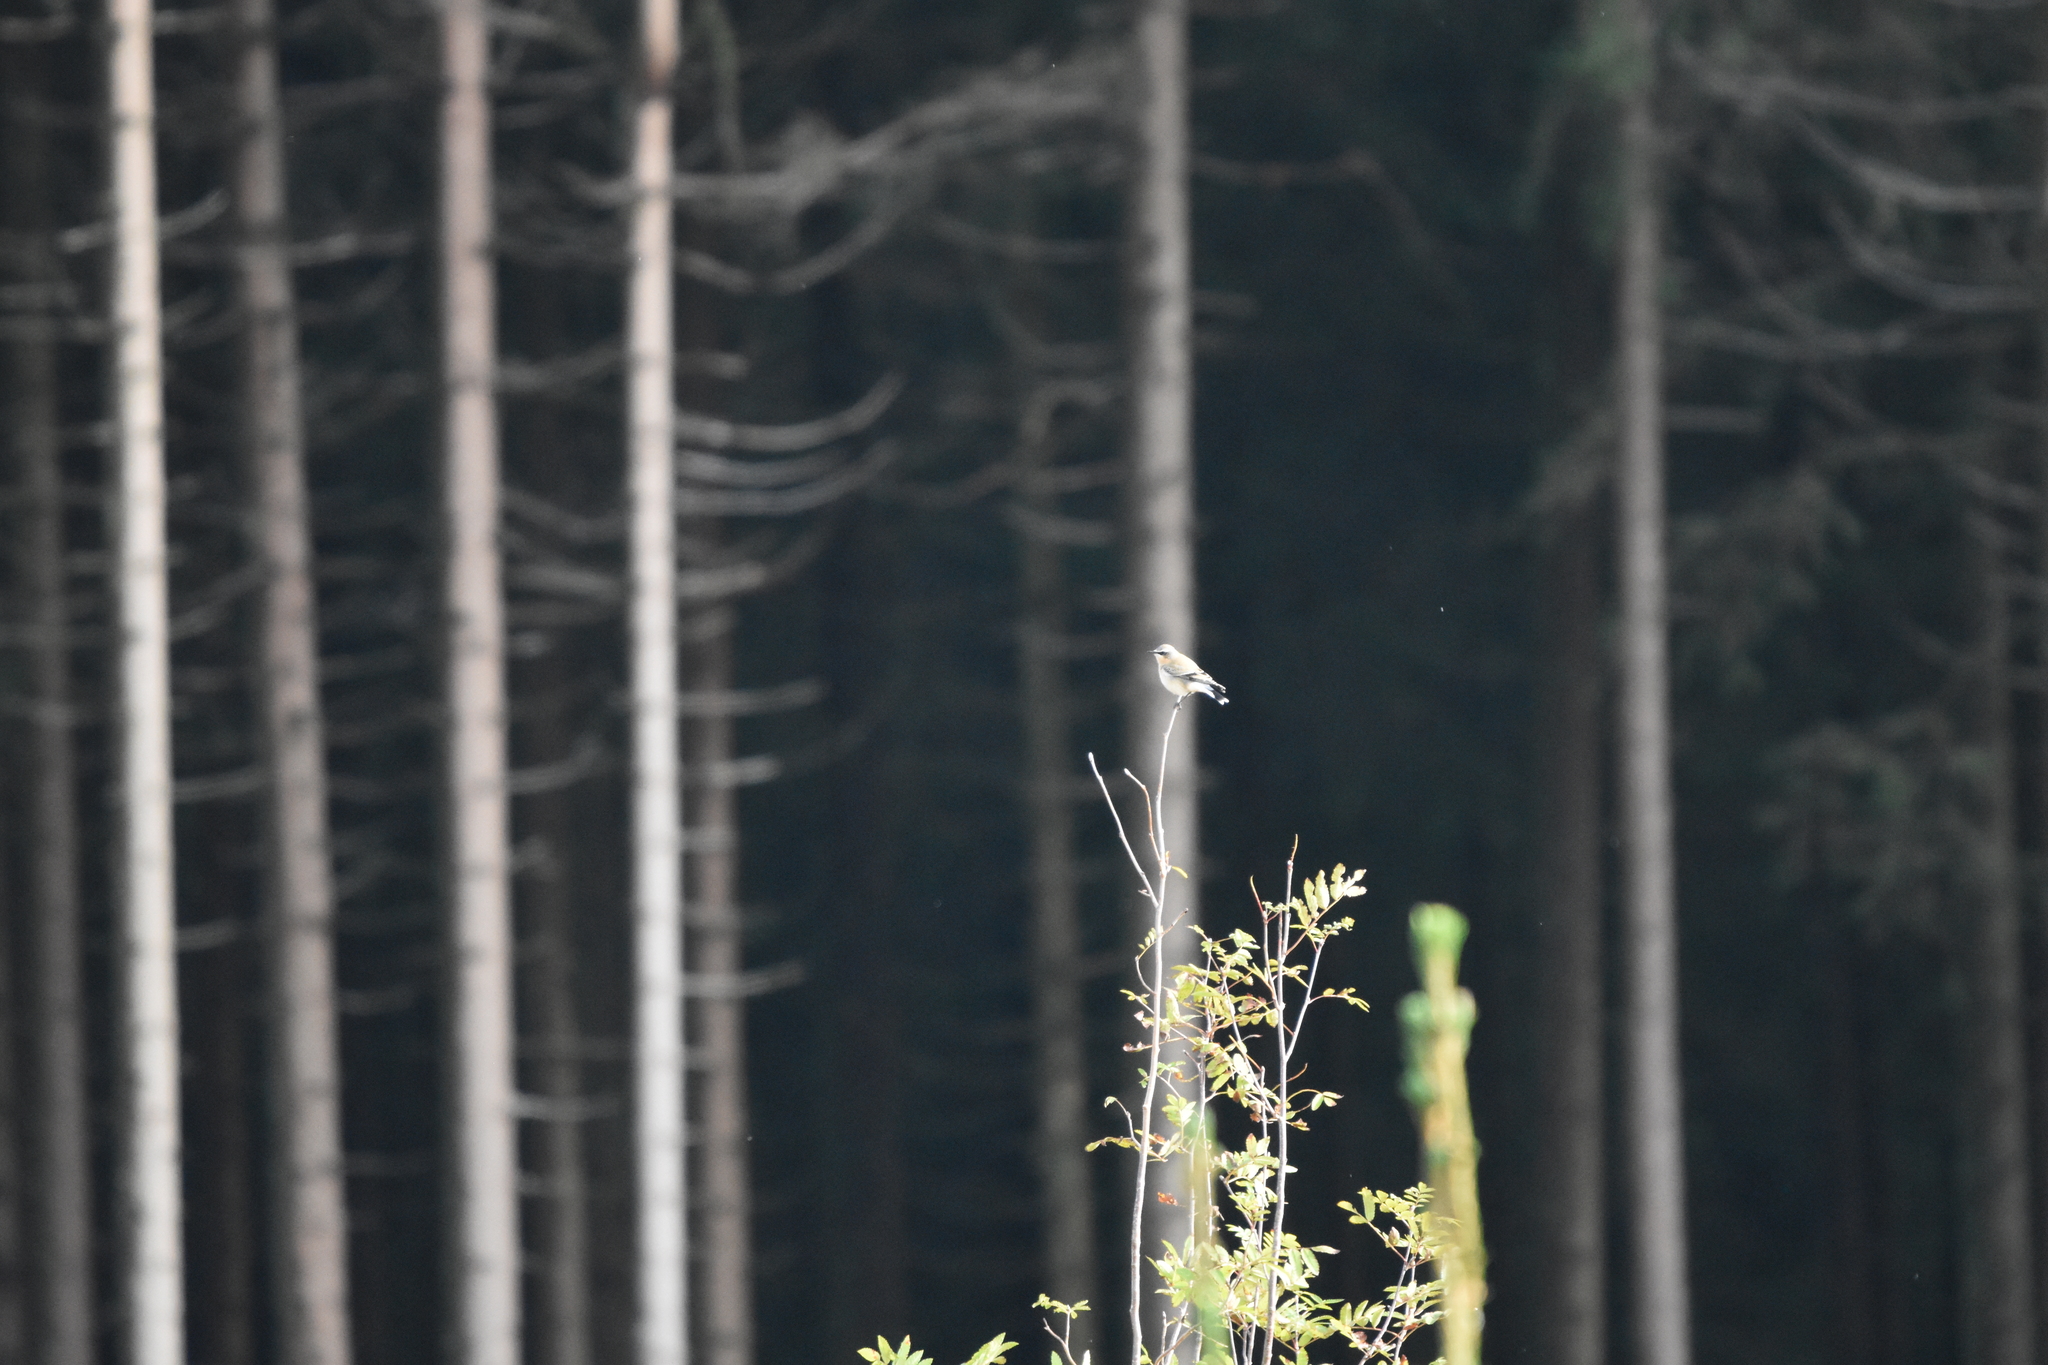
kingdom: Animalia
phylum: Chordata
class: Aves
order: Passeriformes
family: Muscicapidae
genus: Oenanthe
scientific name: Oenanthe oenanthe
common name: Northern wheatear
